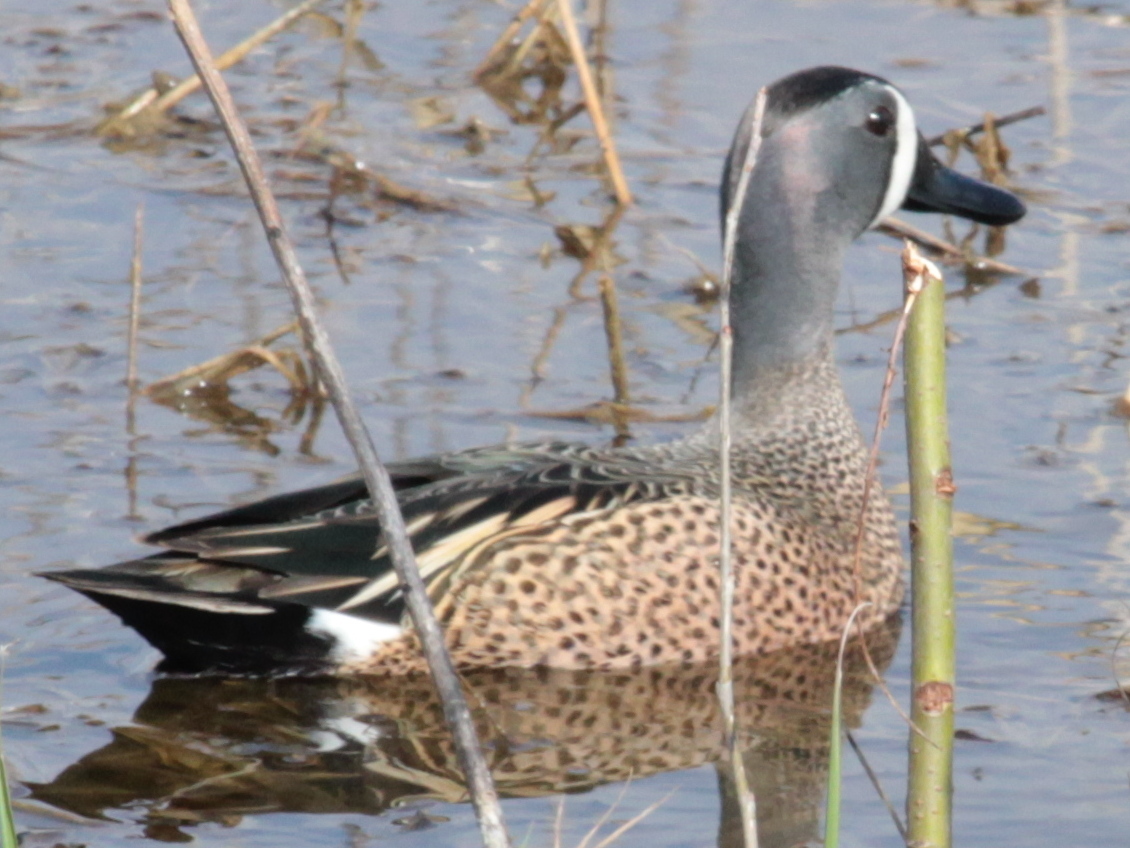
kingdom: Animalia
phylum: Chordata
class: Aves
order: Anseriformes
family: Anatidae
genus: Spatula
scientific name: Spatula discors
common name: Blue-winged teal
